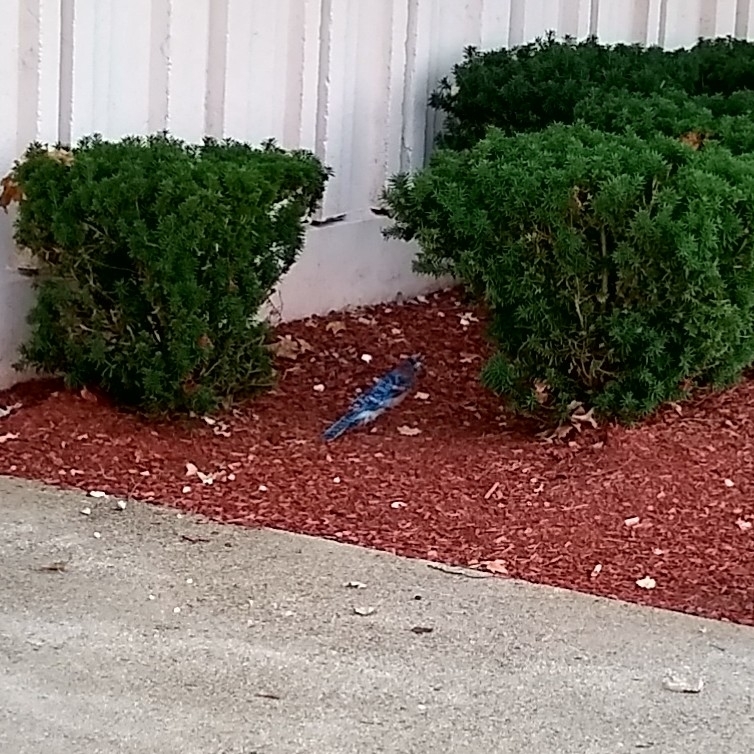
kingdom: Animalia
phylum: Chordata
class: Aves
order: Passeriformes
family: Corvidae
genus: Cyanocitta
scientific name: Cyanocitta cristata
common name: Blue jay
